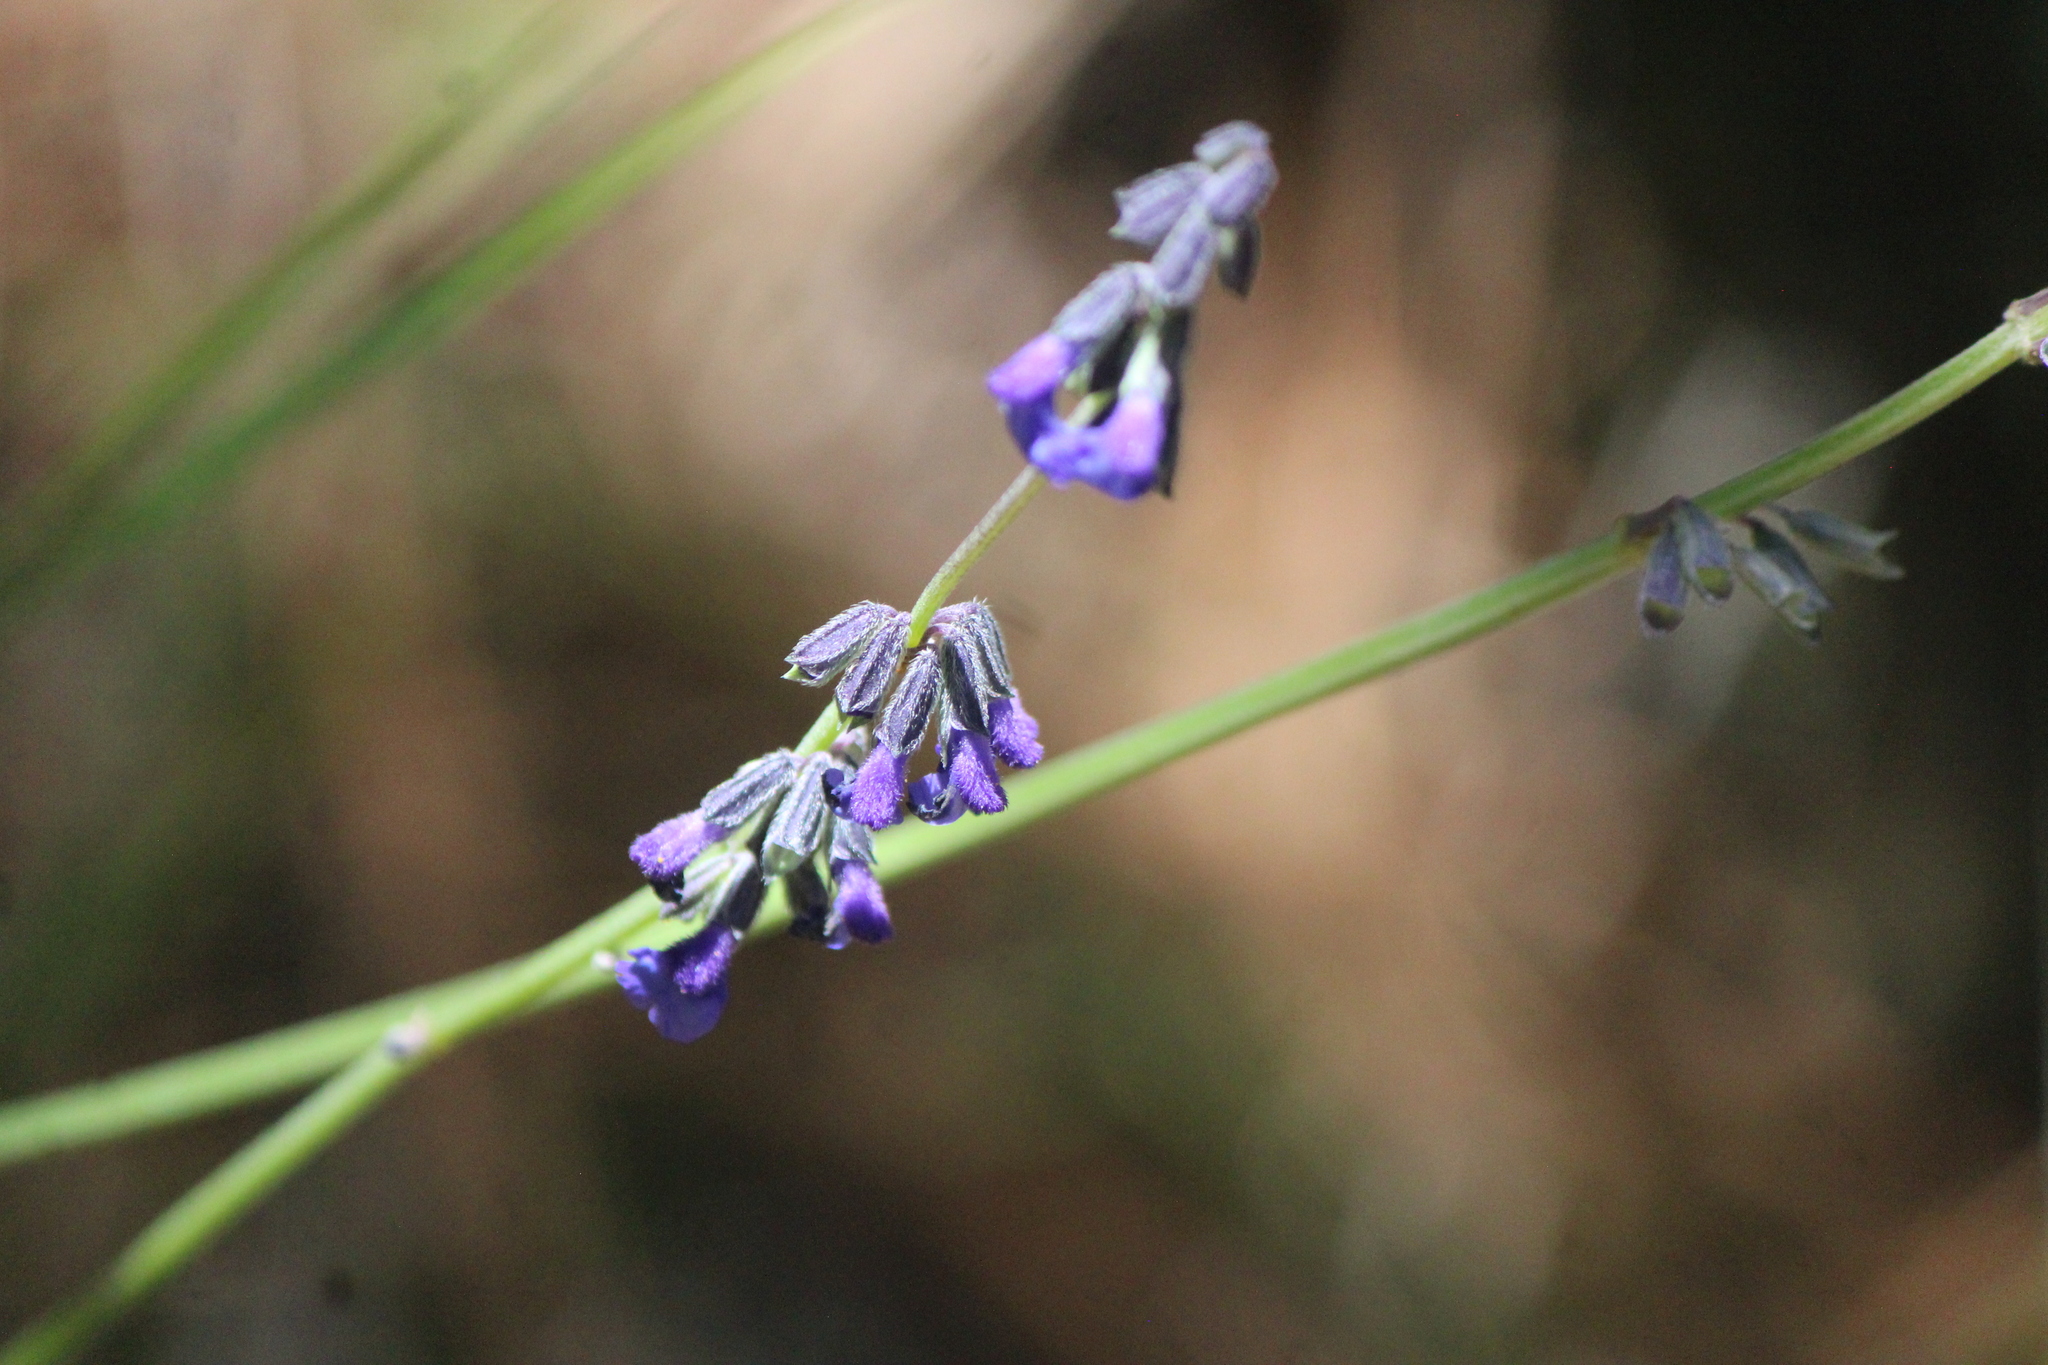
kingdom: Plantae
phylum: Tracheophyta
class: Magnoliopsida
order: Lamiales
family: Lamiaceae
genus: Salvia
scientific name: Salvia helianthemifolia
